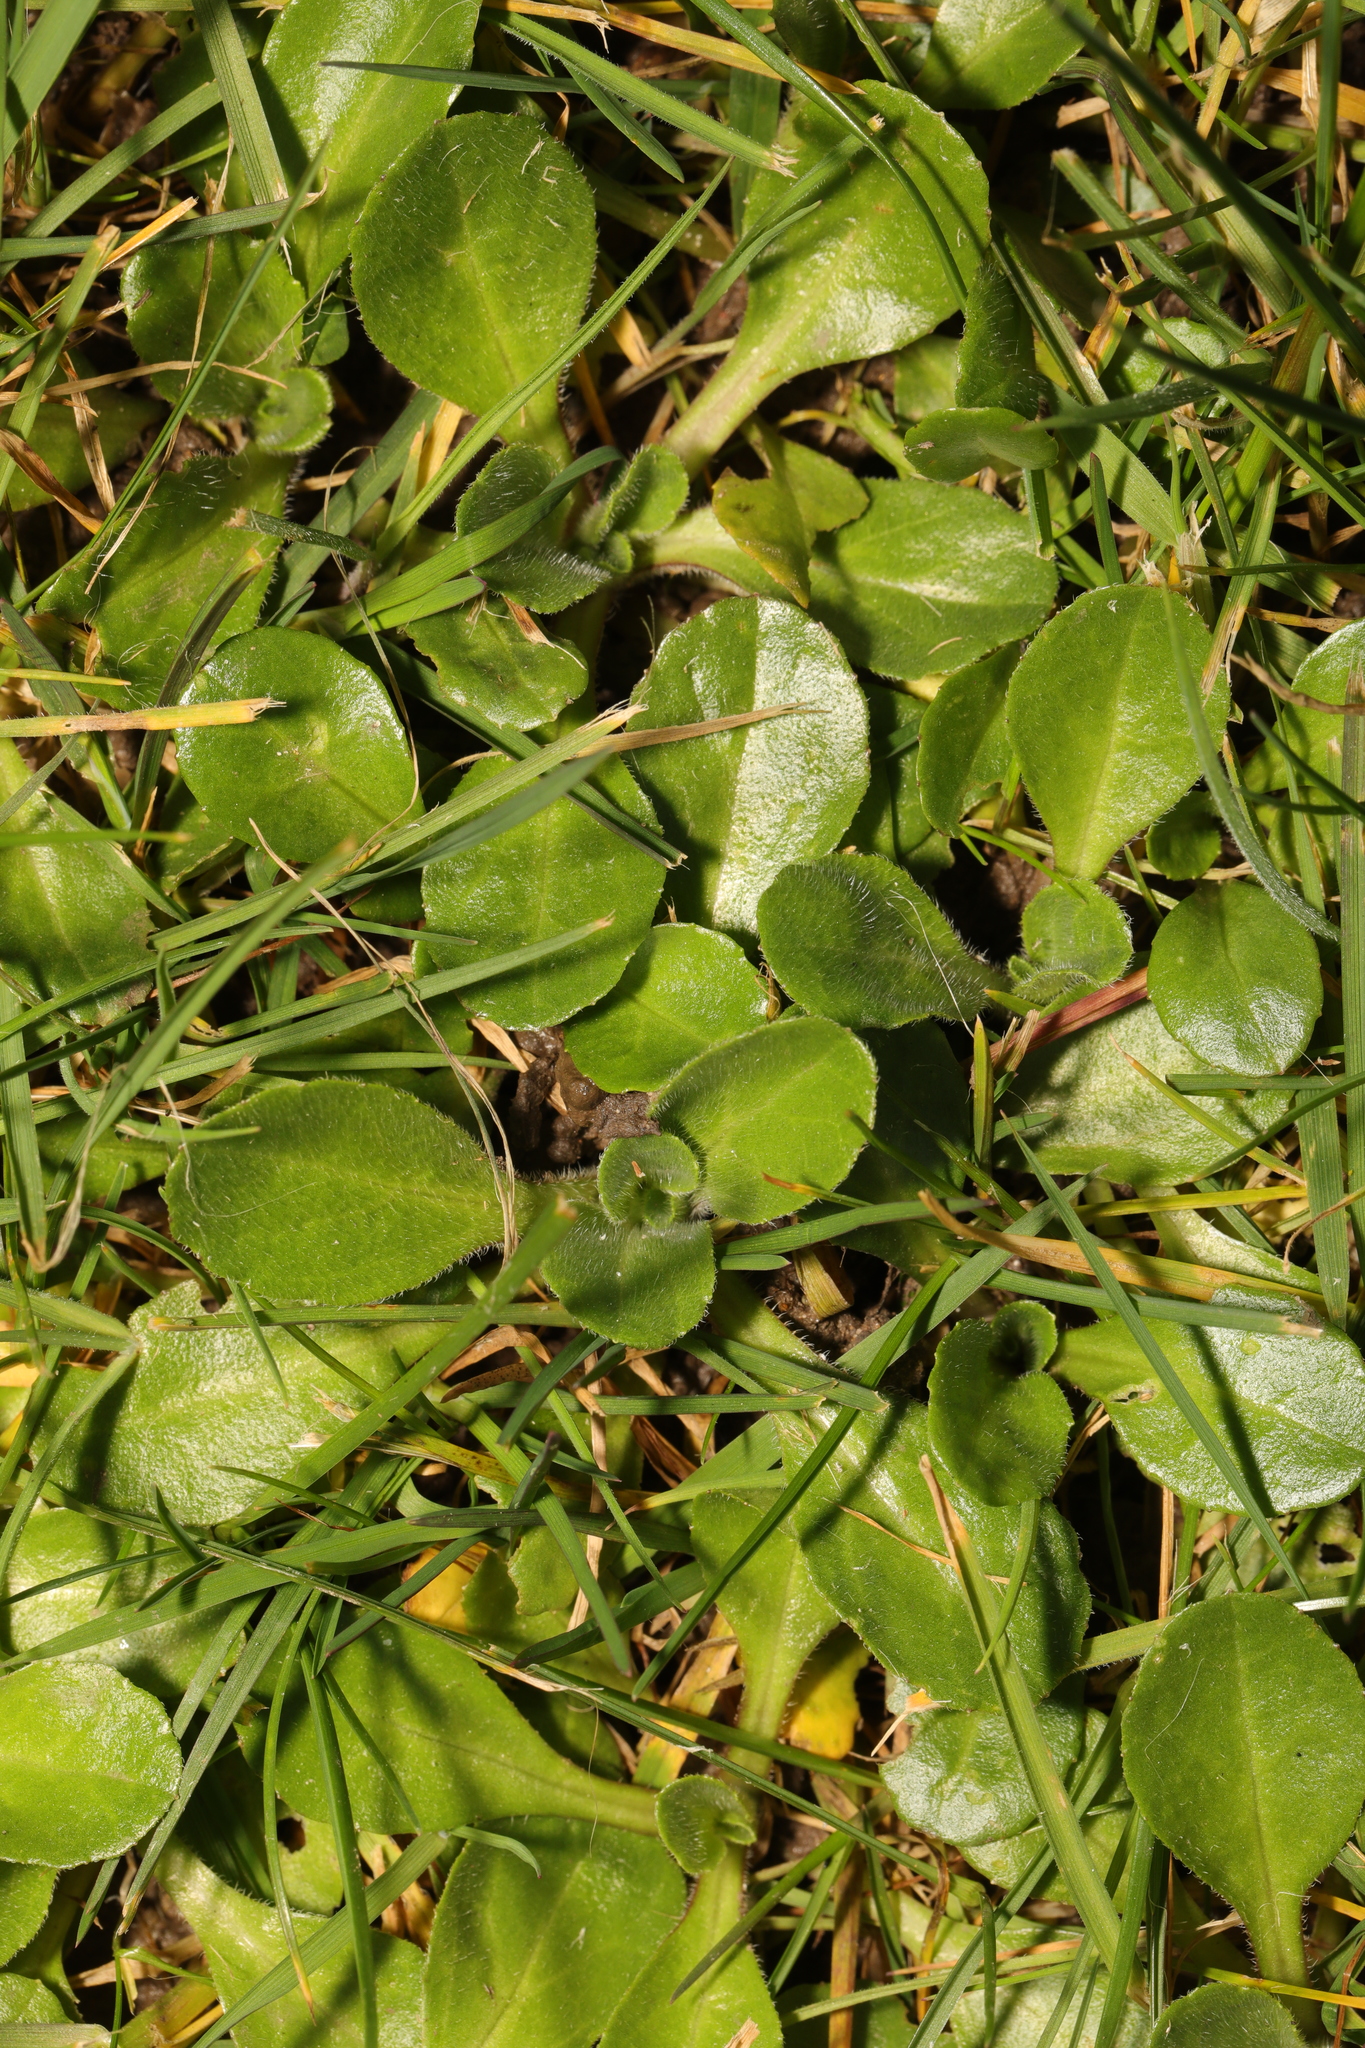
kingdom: Plantae
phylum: Tracheophyta
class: Magnoliopsida
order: Asterales
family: Asteraceae
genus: Bellis
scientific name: Bellis perennis
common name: Lawndaisy
